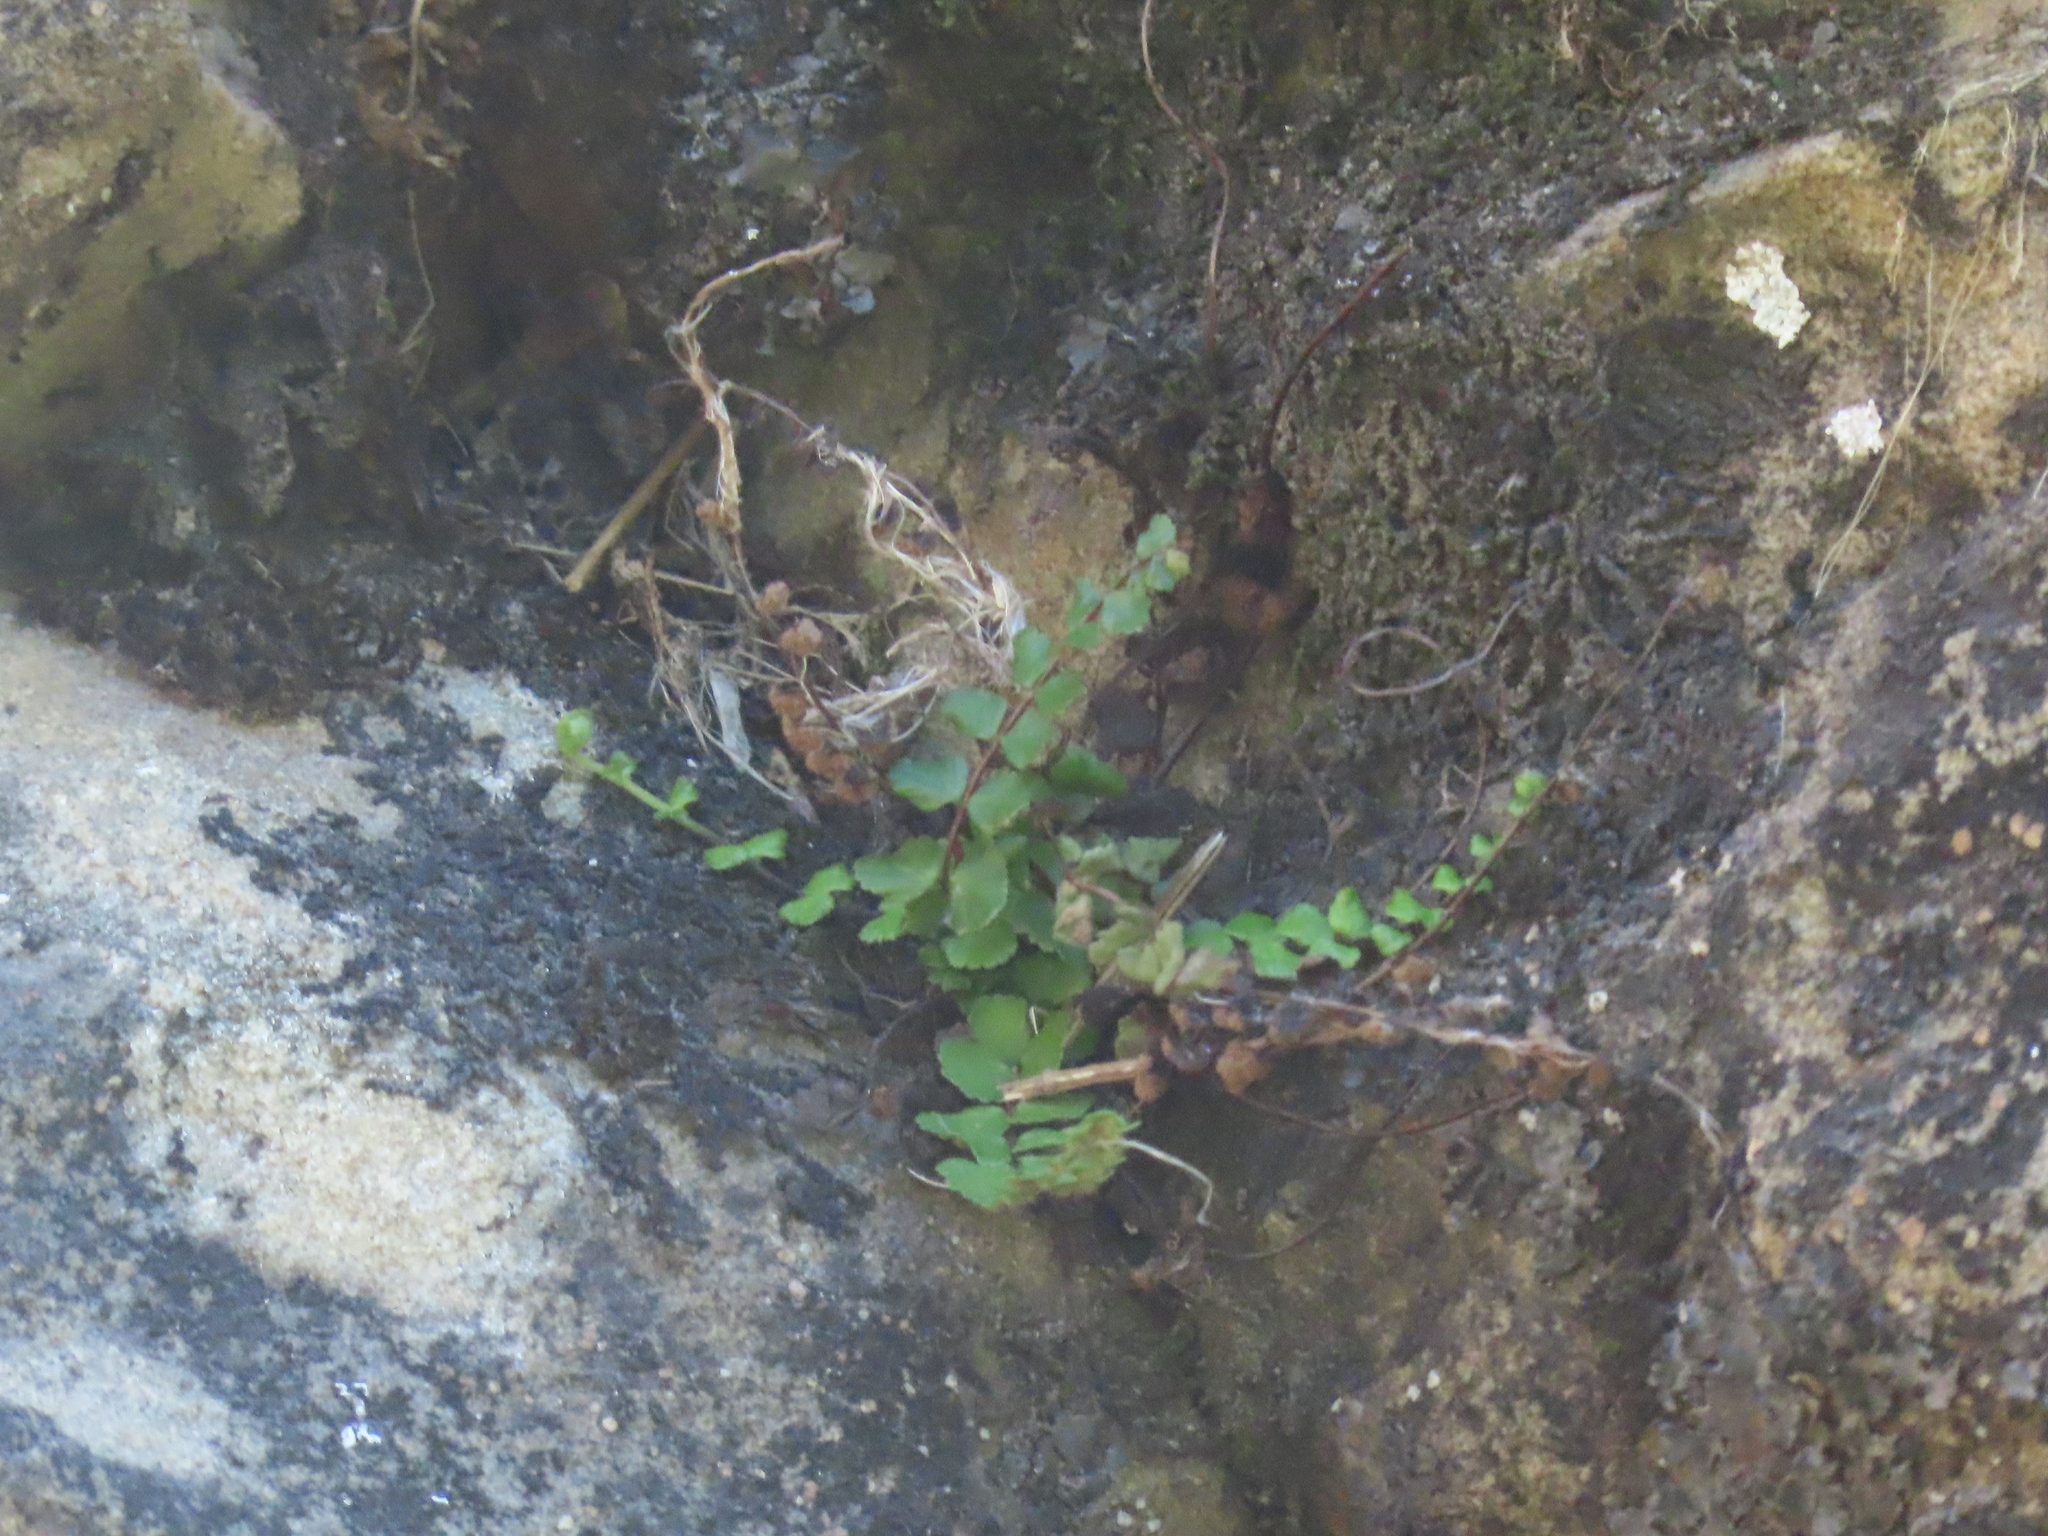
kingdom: Plantae
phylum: Tracheophyta
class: Polypodiopsida
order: Polypodiales
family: Aspleniaceae
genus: Asplenium
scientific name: Asplenium trichomanes
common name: Maidenhair spleenwort
